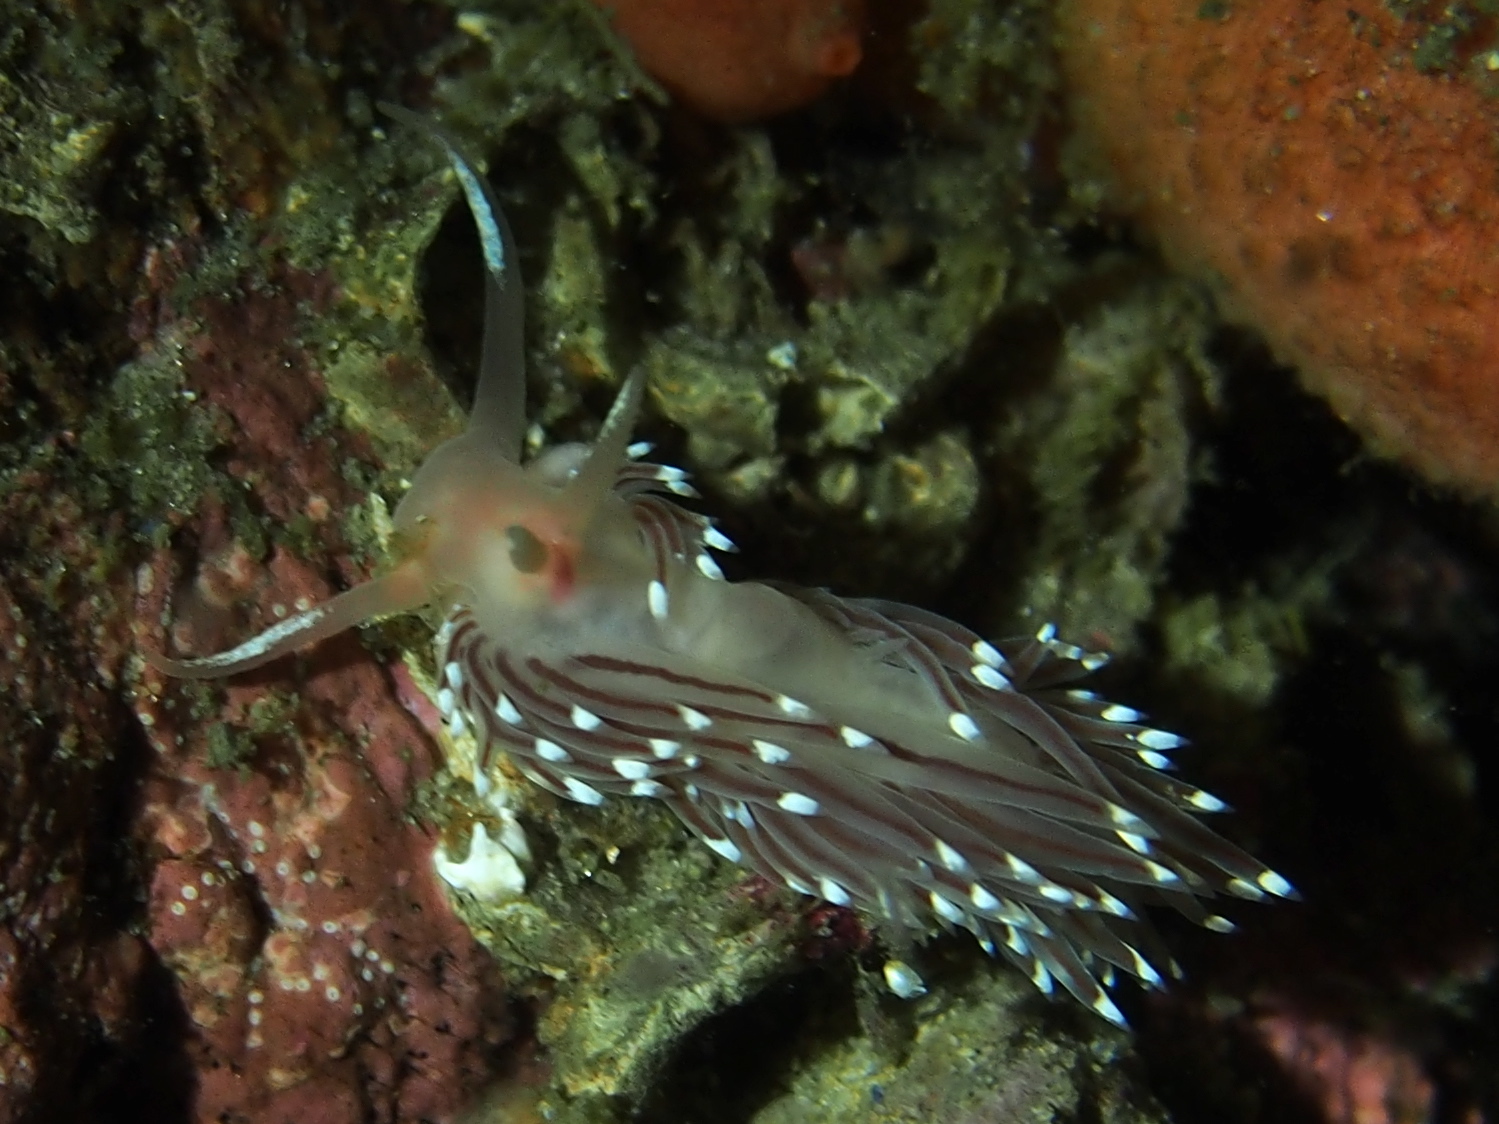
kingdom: Animalia
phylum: Mollusca
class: Gastropoda
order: Nudibranchia
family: Facelinidae
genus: Facelina
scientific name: Facelina bostoniensis
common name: Boston facelina
